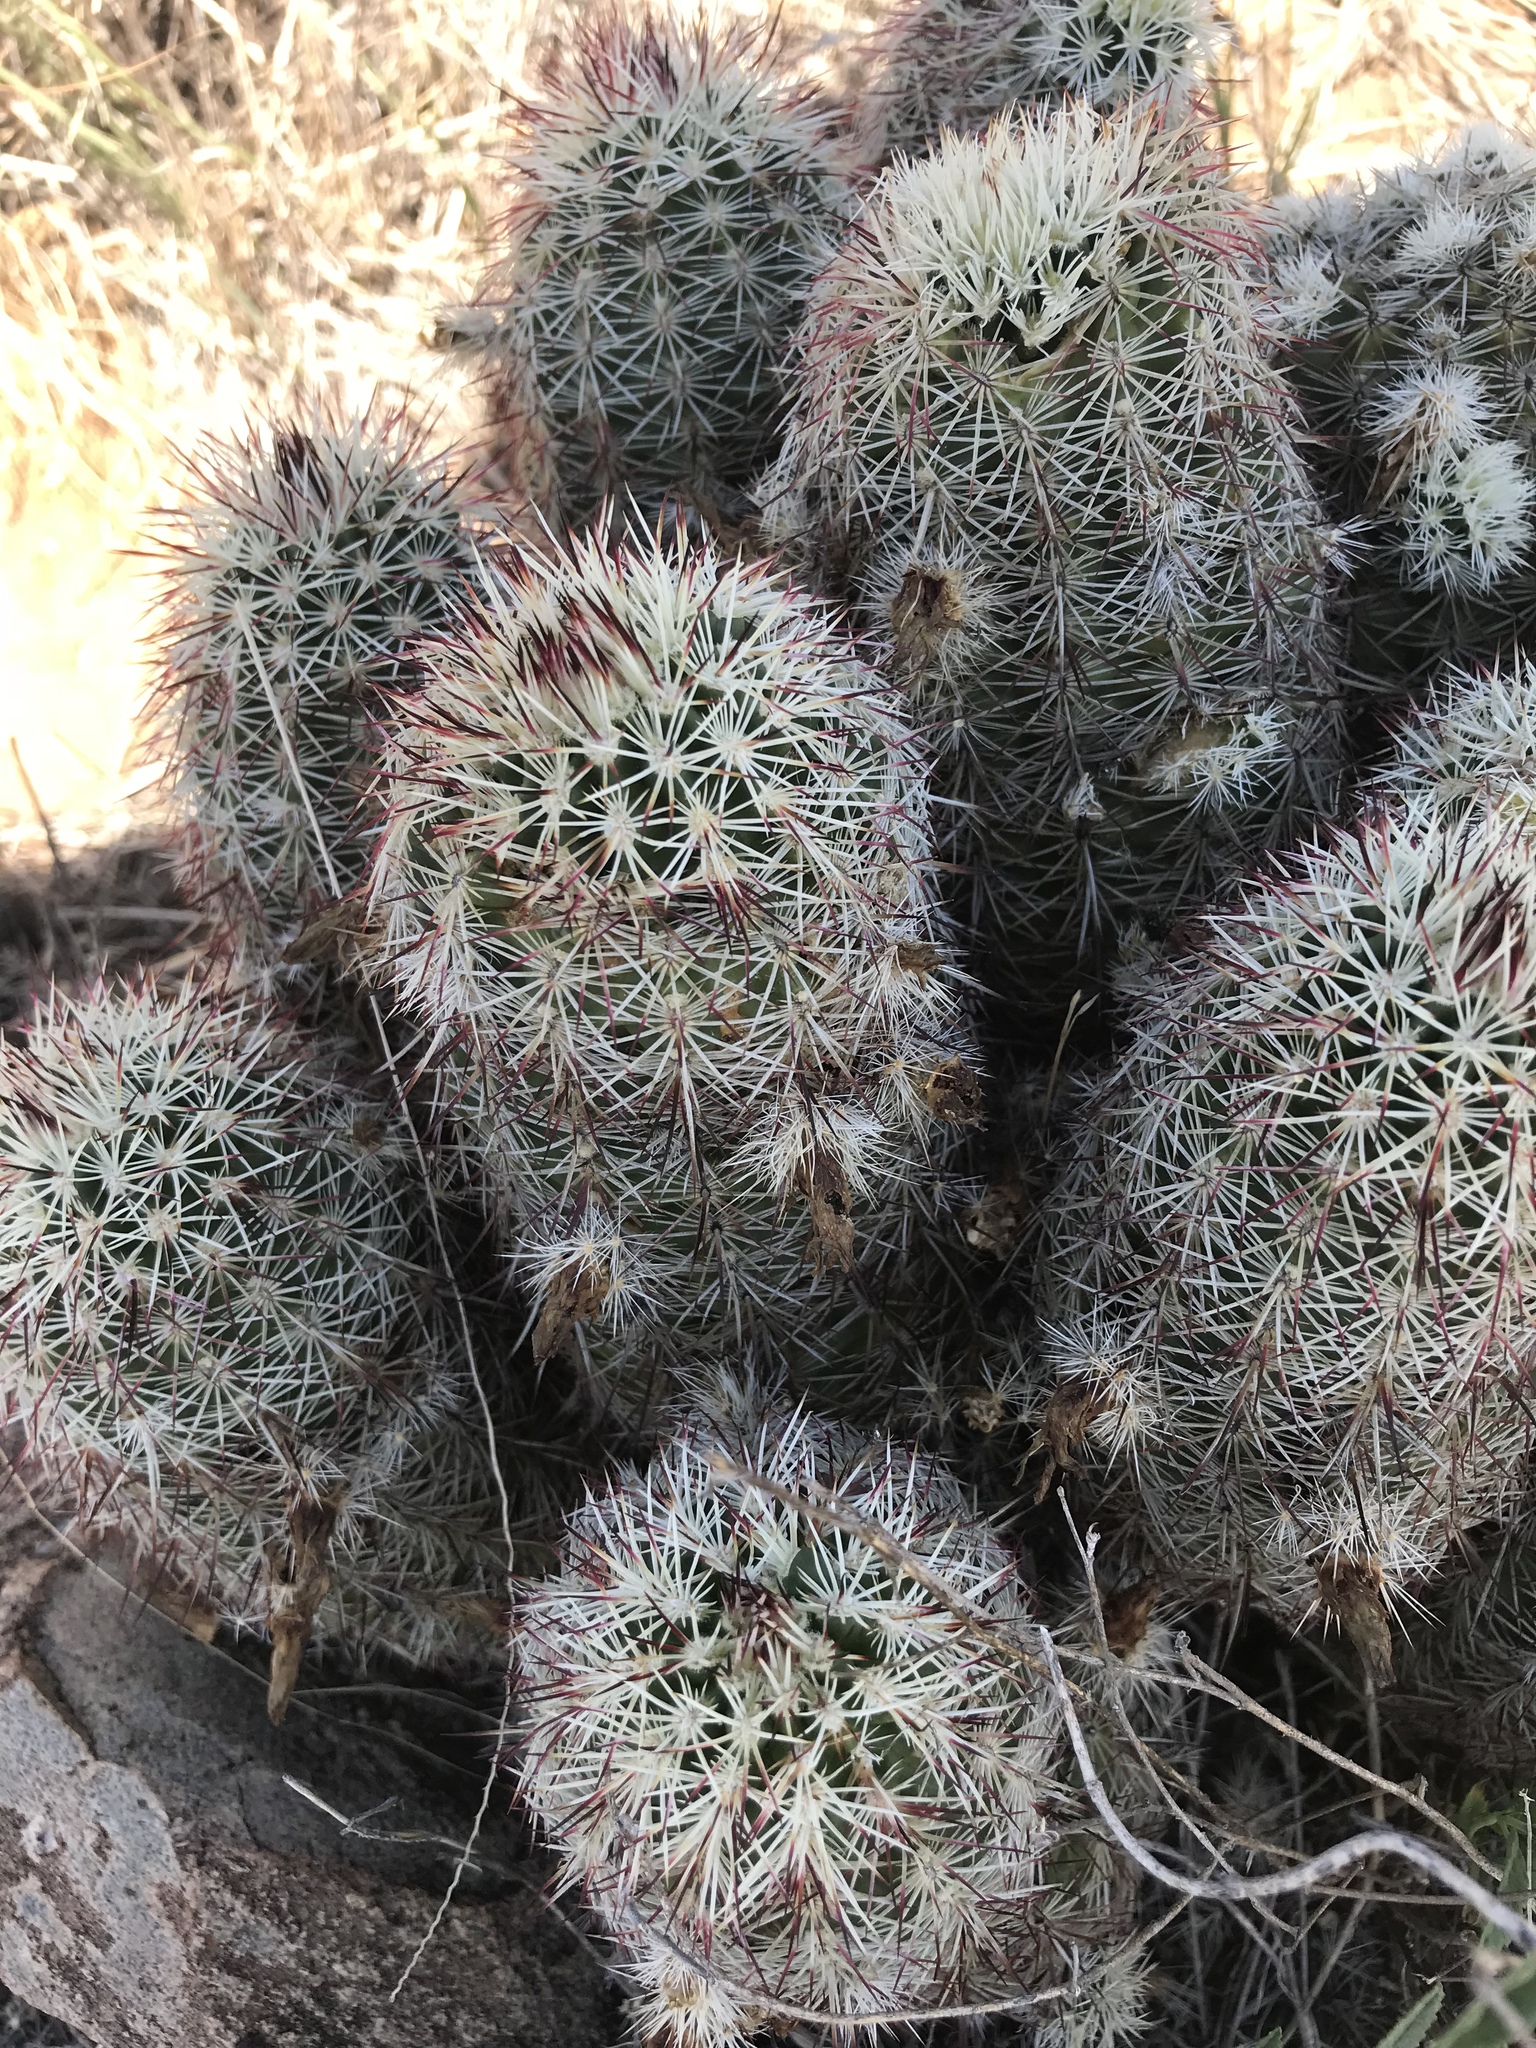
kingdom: Plantae
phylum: Tracheophyta
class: Magnoliopsida
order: Caryophyllales
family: Cactaceae
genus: Echinocereus
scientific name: Echinocereus viridiflorus
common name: Nylon hedgehog cactus
